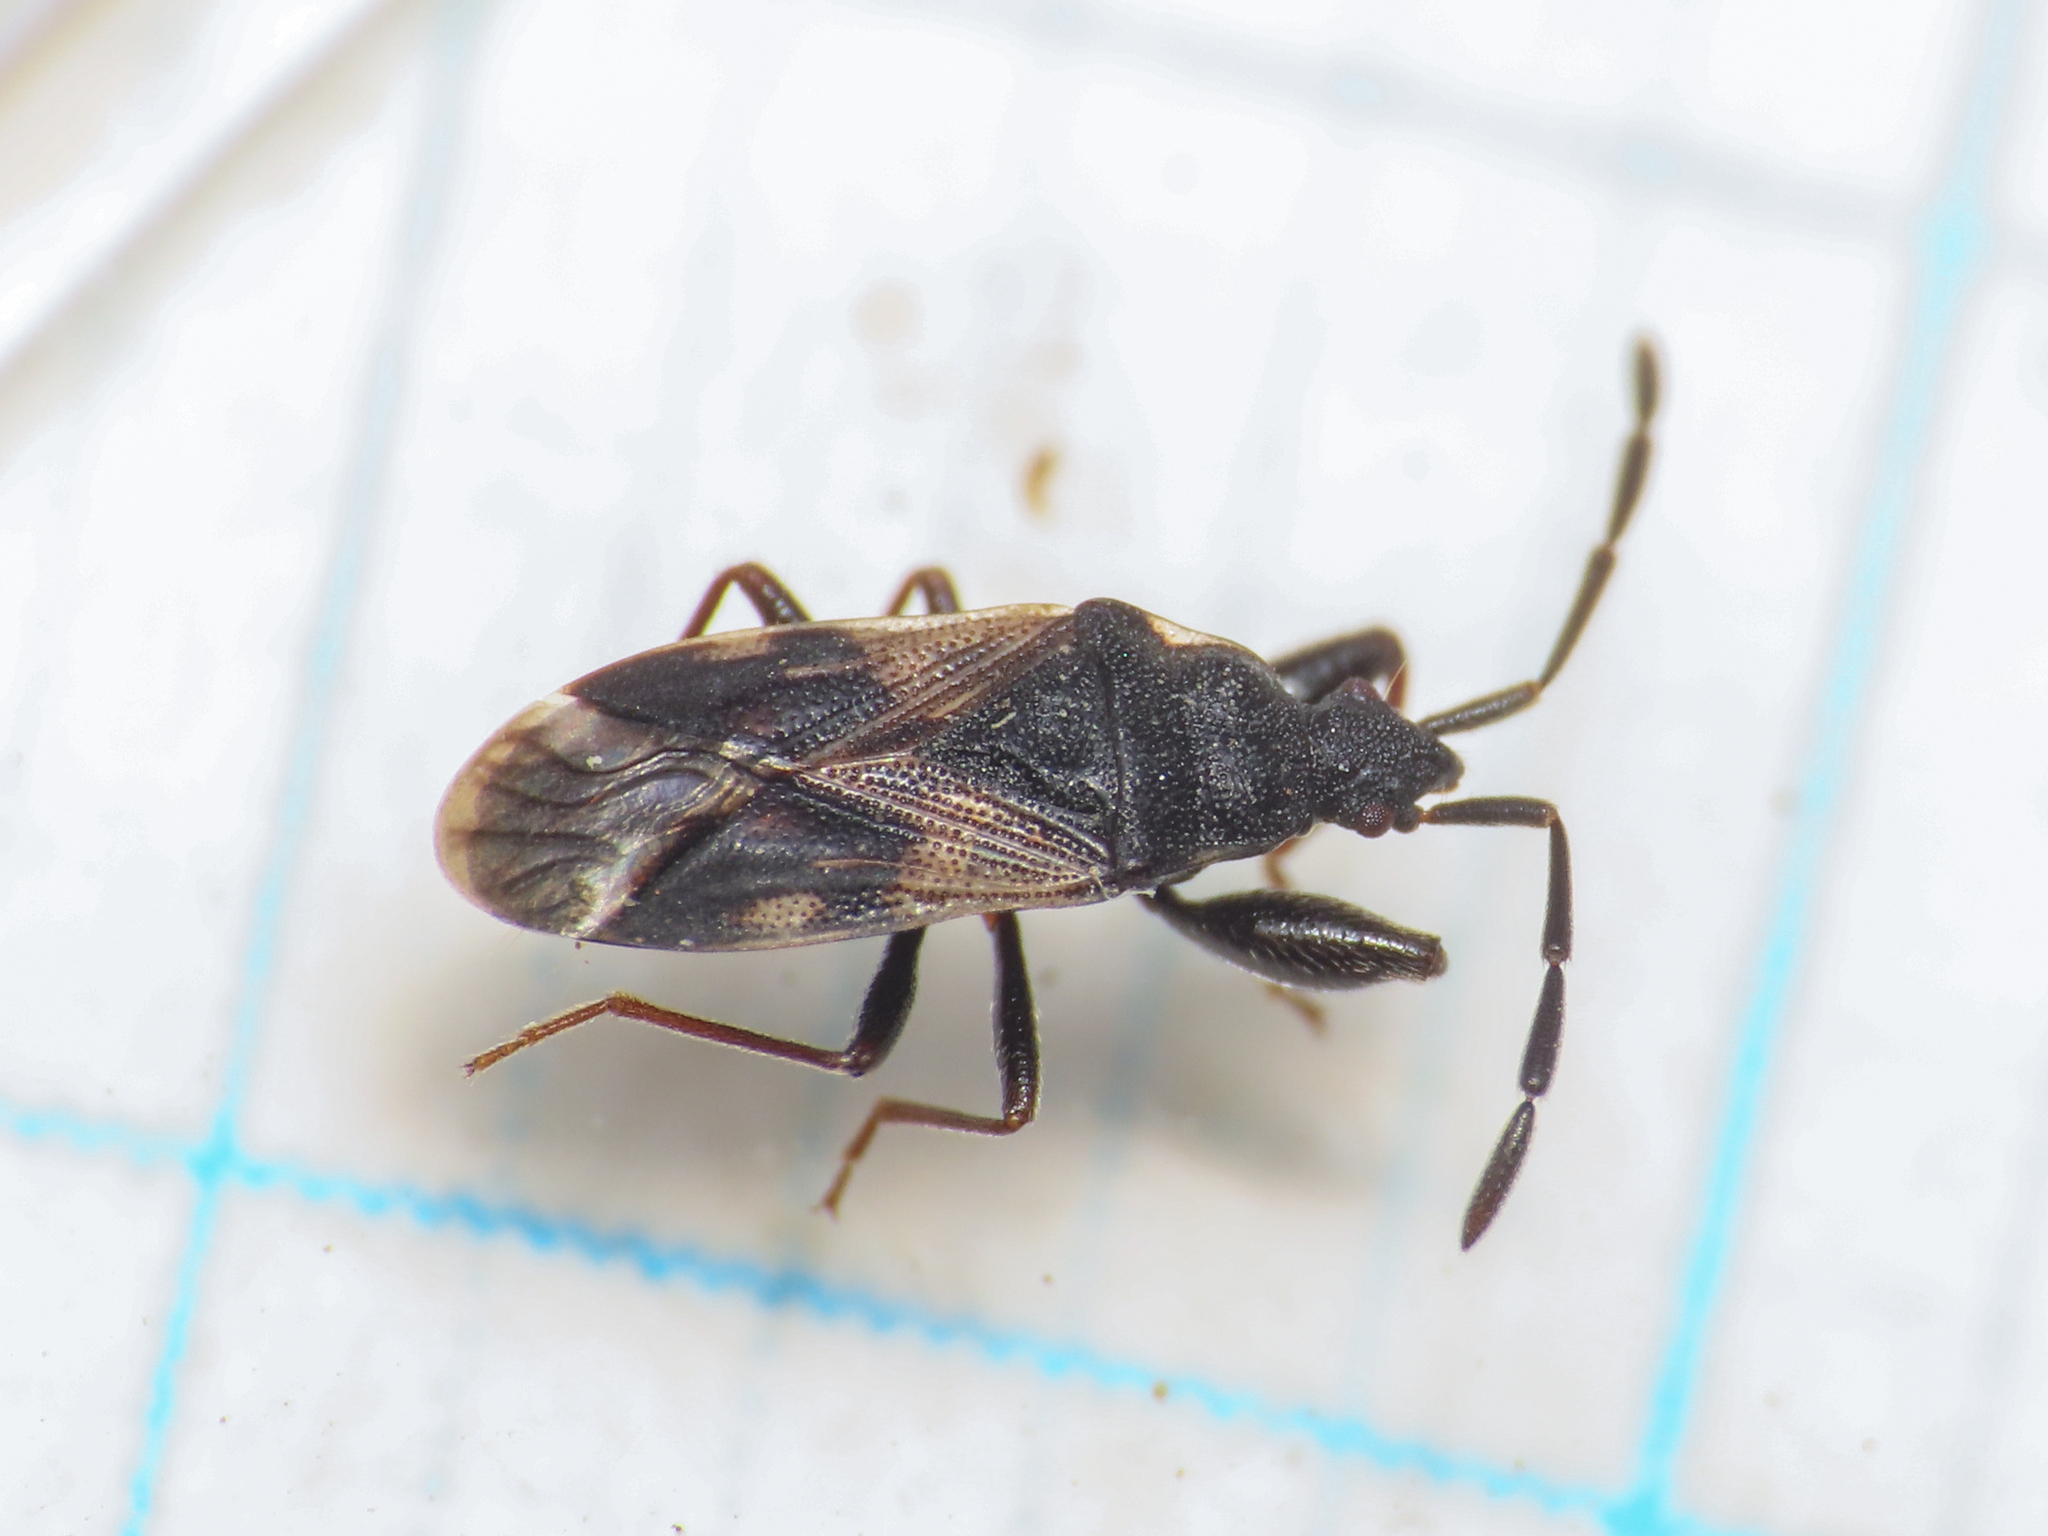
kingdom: Animalia
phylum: Arthropoda
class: Insecta
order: Hemiptera
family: Rhyparochromidae
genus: Taphropeltus
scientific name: Taphropeltus contractus
